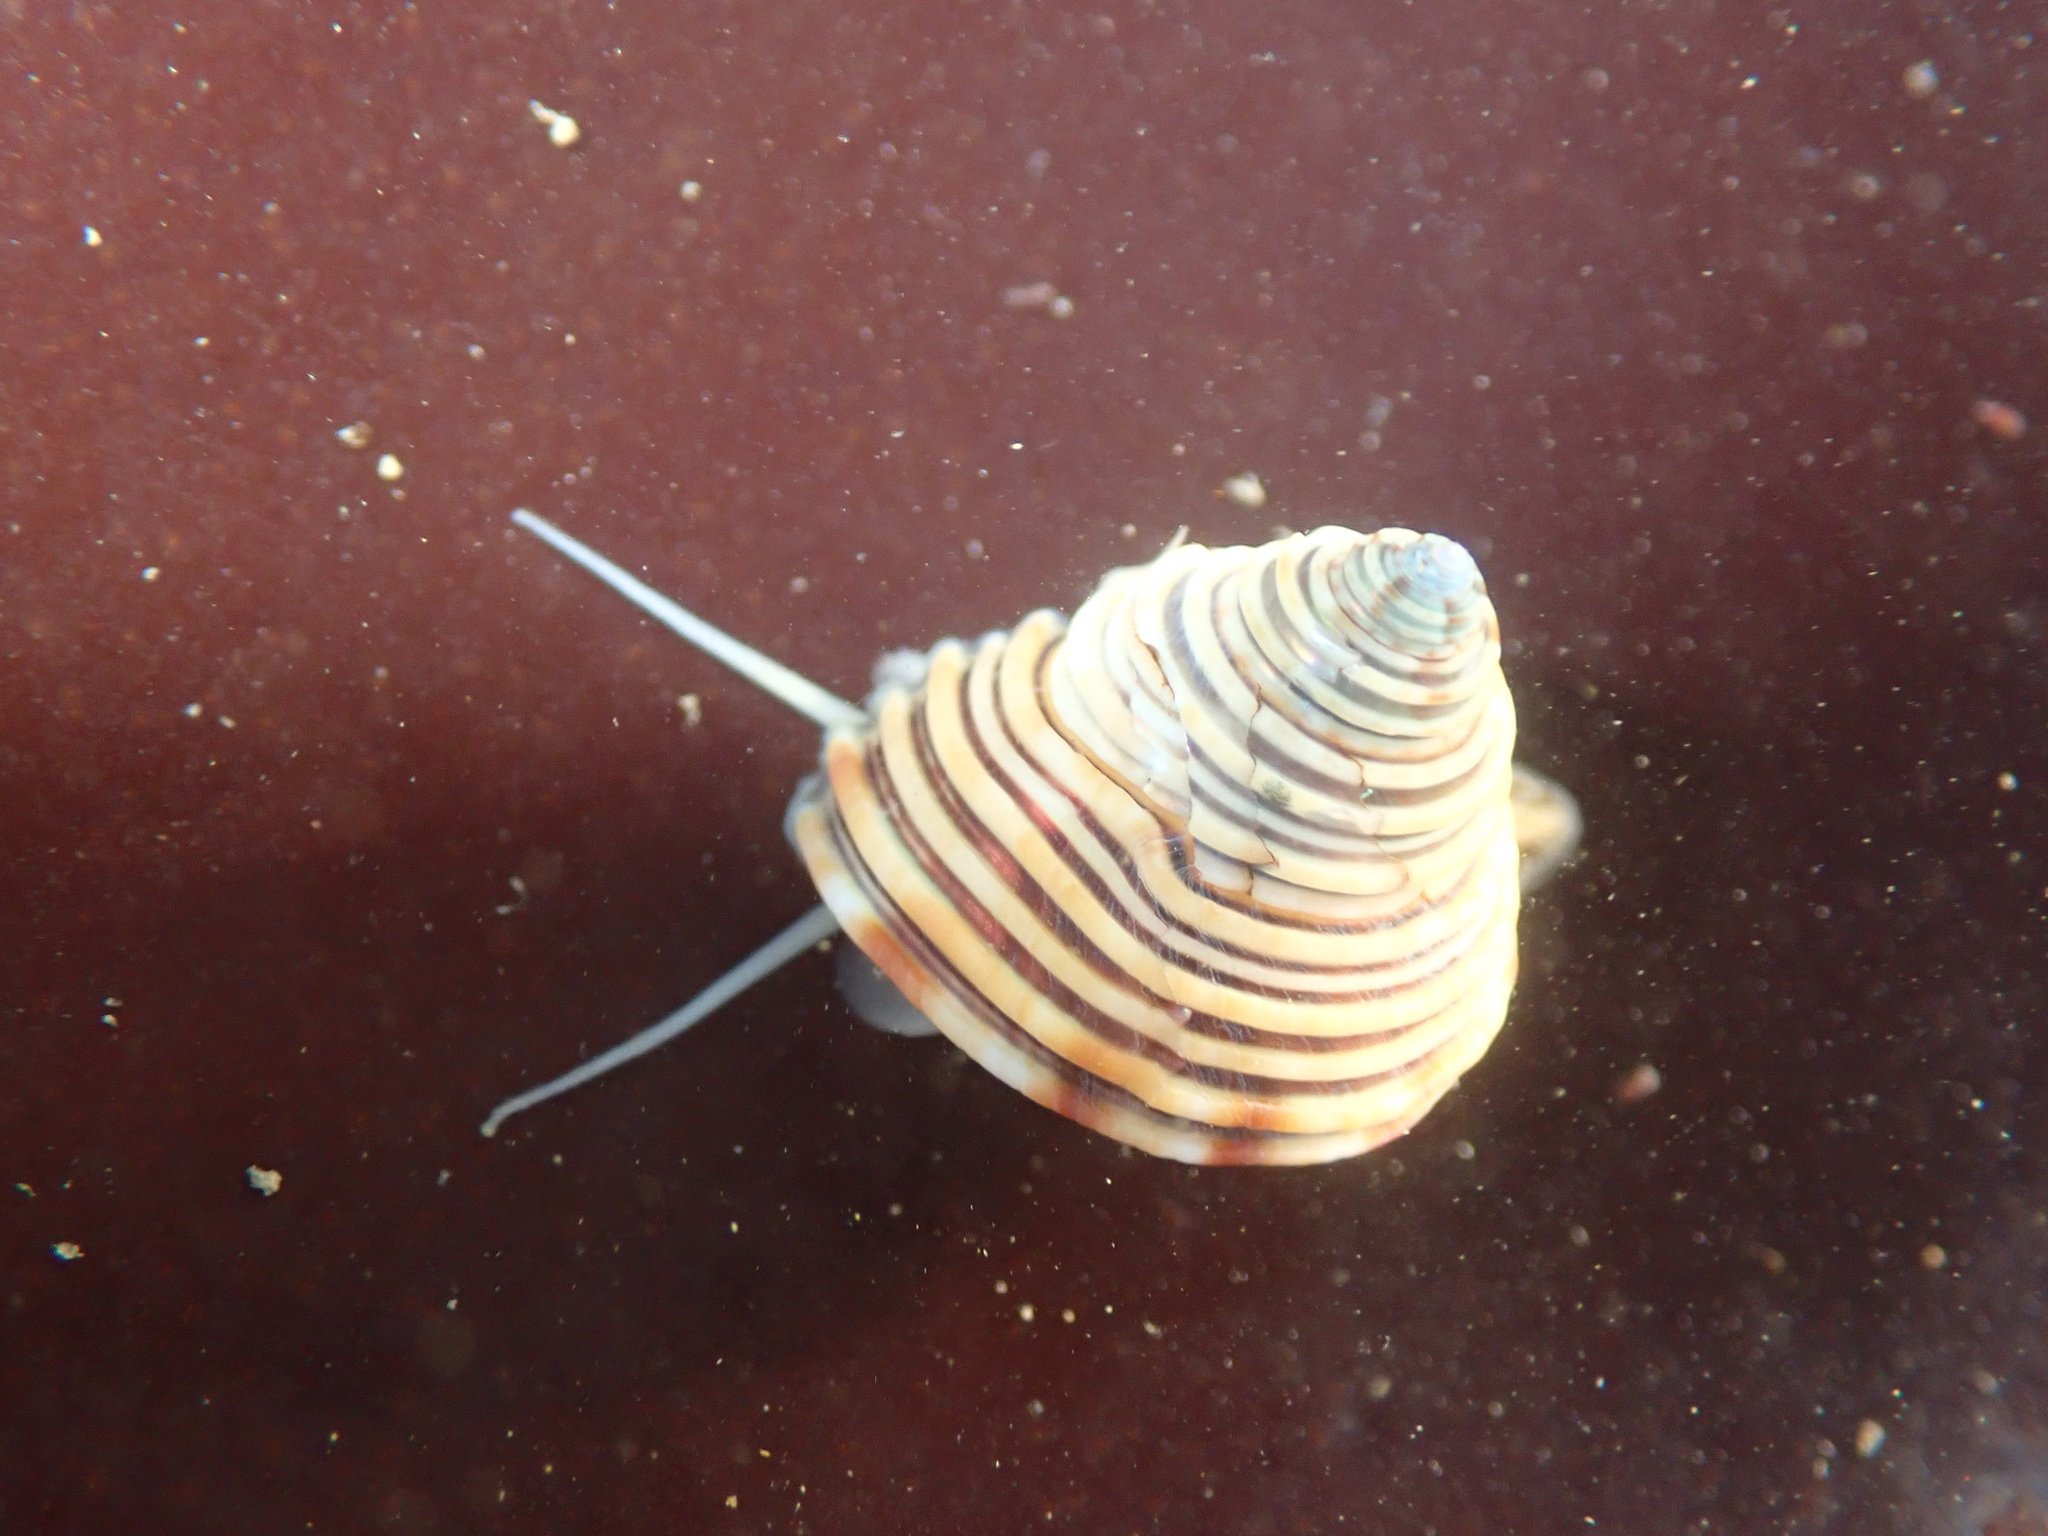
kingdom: Animalia
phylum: Mollusca
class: Gastropoda
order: Trochida
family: Calliostomatidae
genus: Calliostoma
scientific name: Calliostoma canaliculatum
